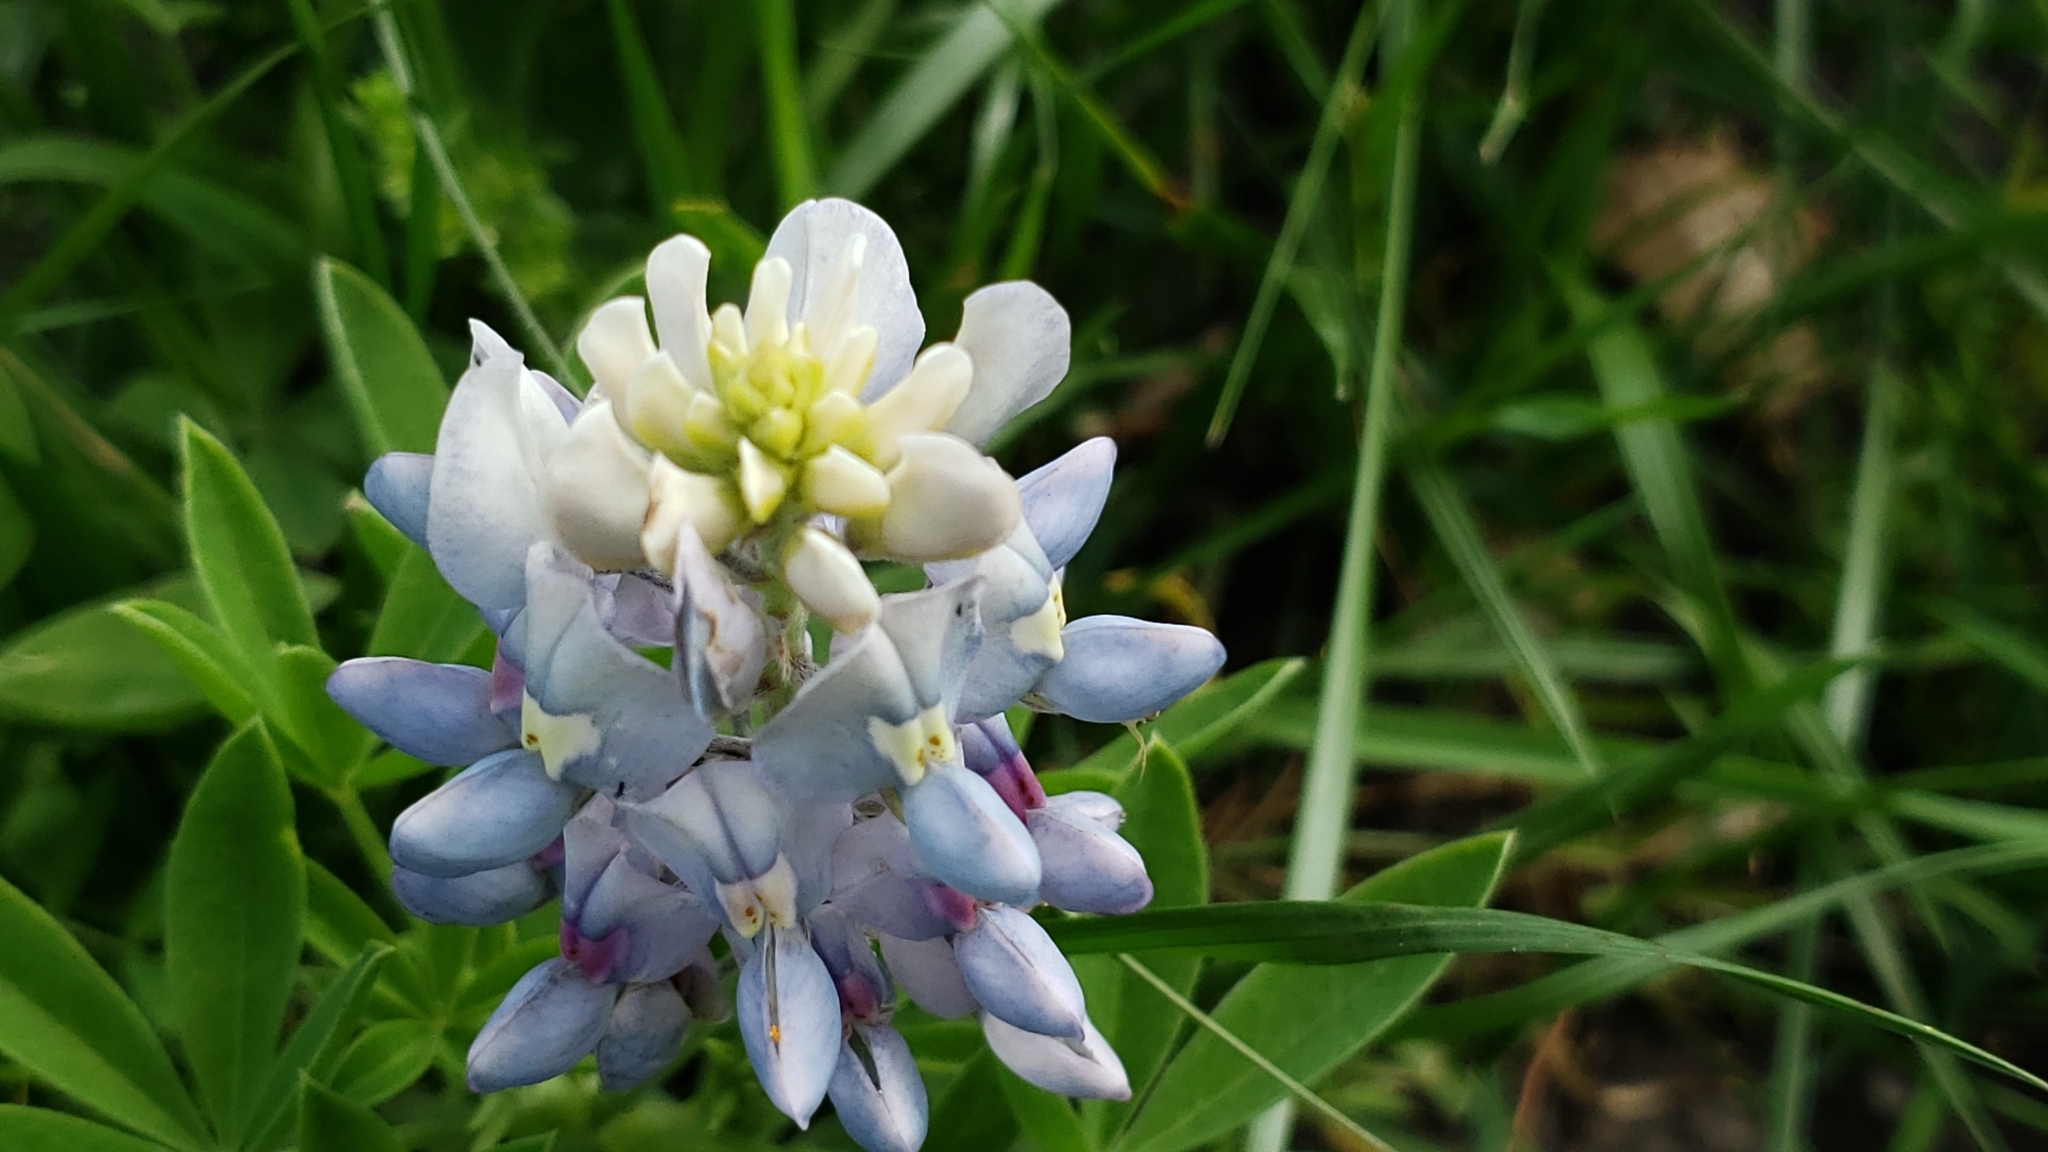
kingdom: Plantae
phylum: Tracheophyta
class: Magnoliopsida
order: Fabales
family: Fabaceae
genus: Lupinus
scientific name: Lupinus texensis
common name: Texas bluebonnet
